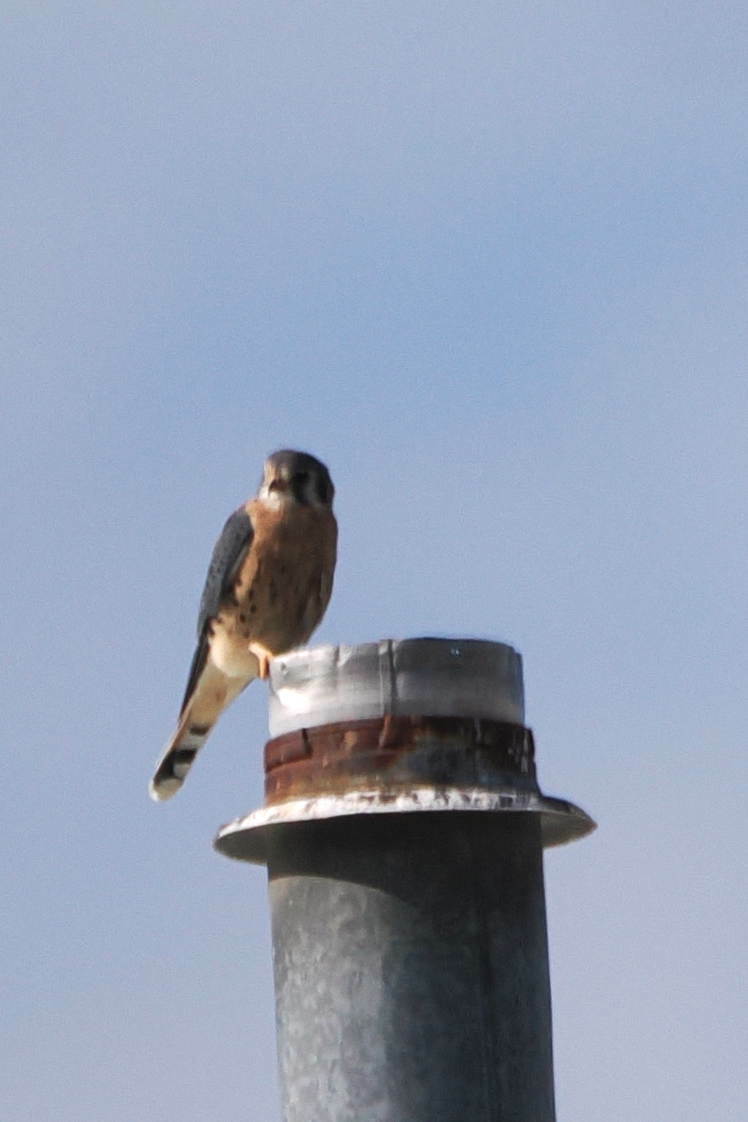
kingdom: Animalia
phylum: Chordata
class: Aves
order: Falconiformes
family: Falconidae
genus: Falco
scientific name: Falco sparverius
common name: American kestrel
